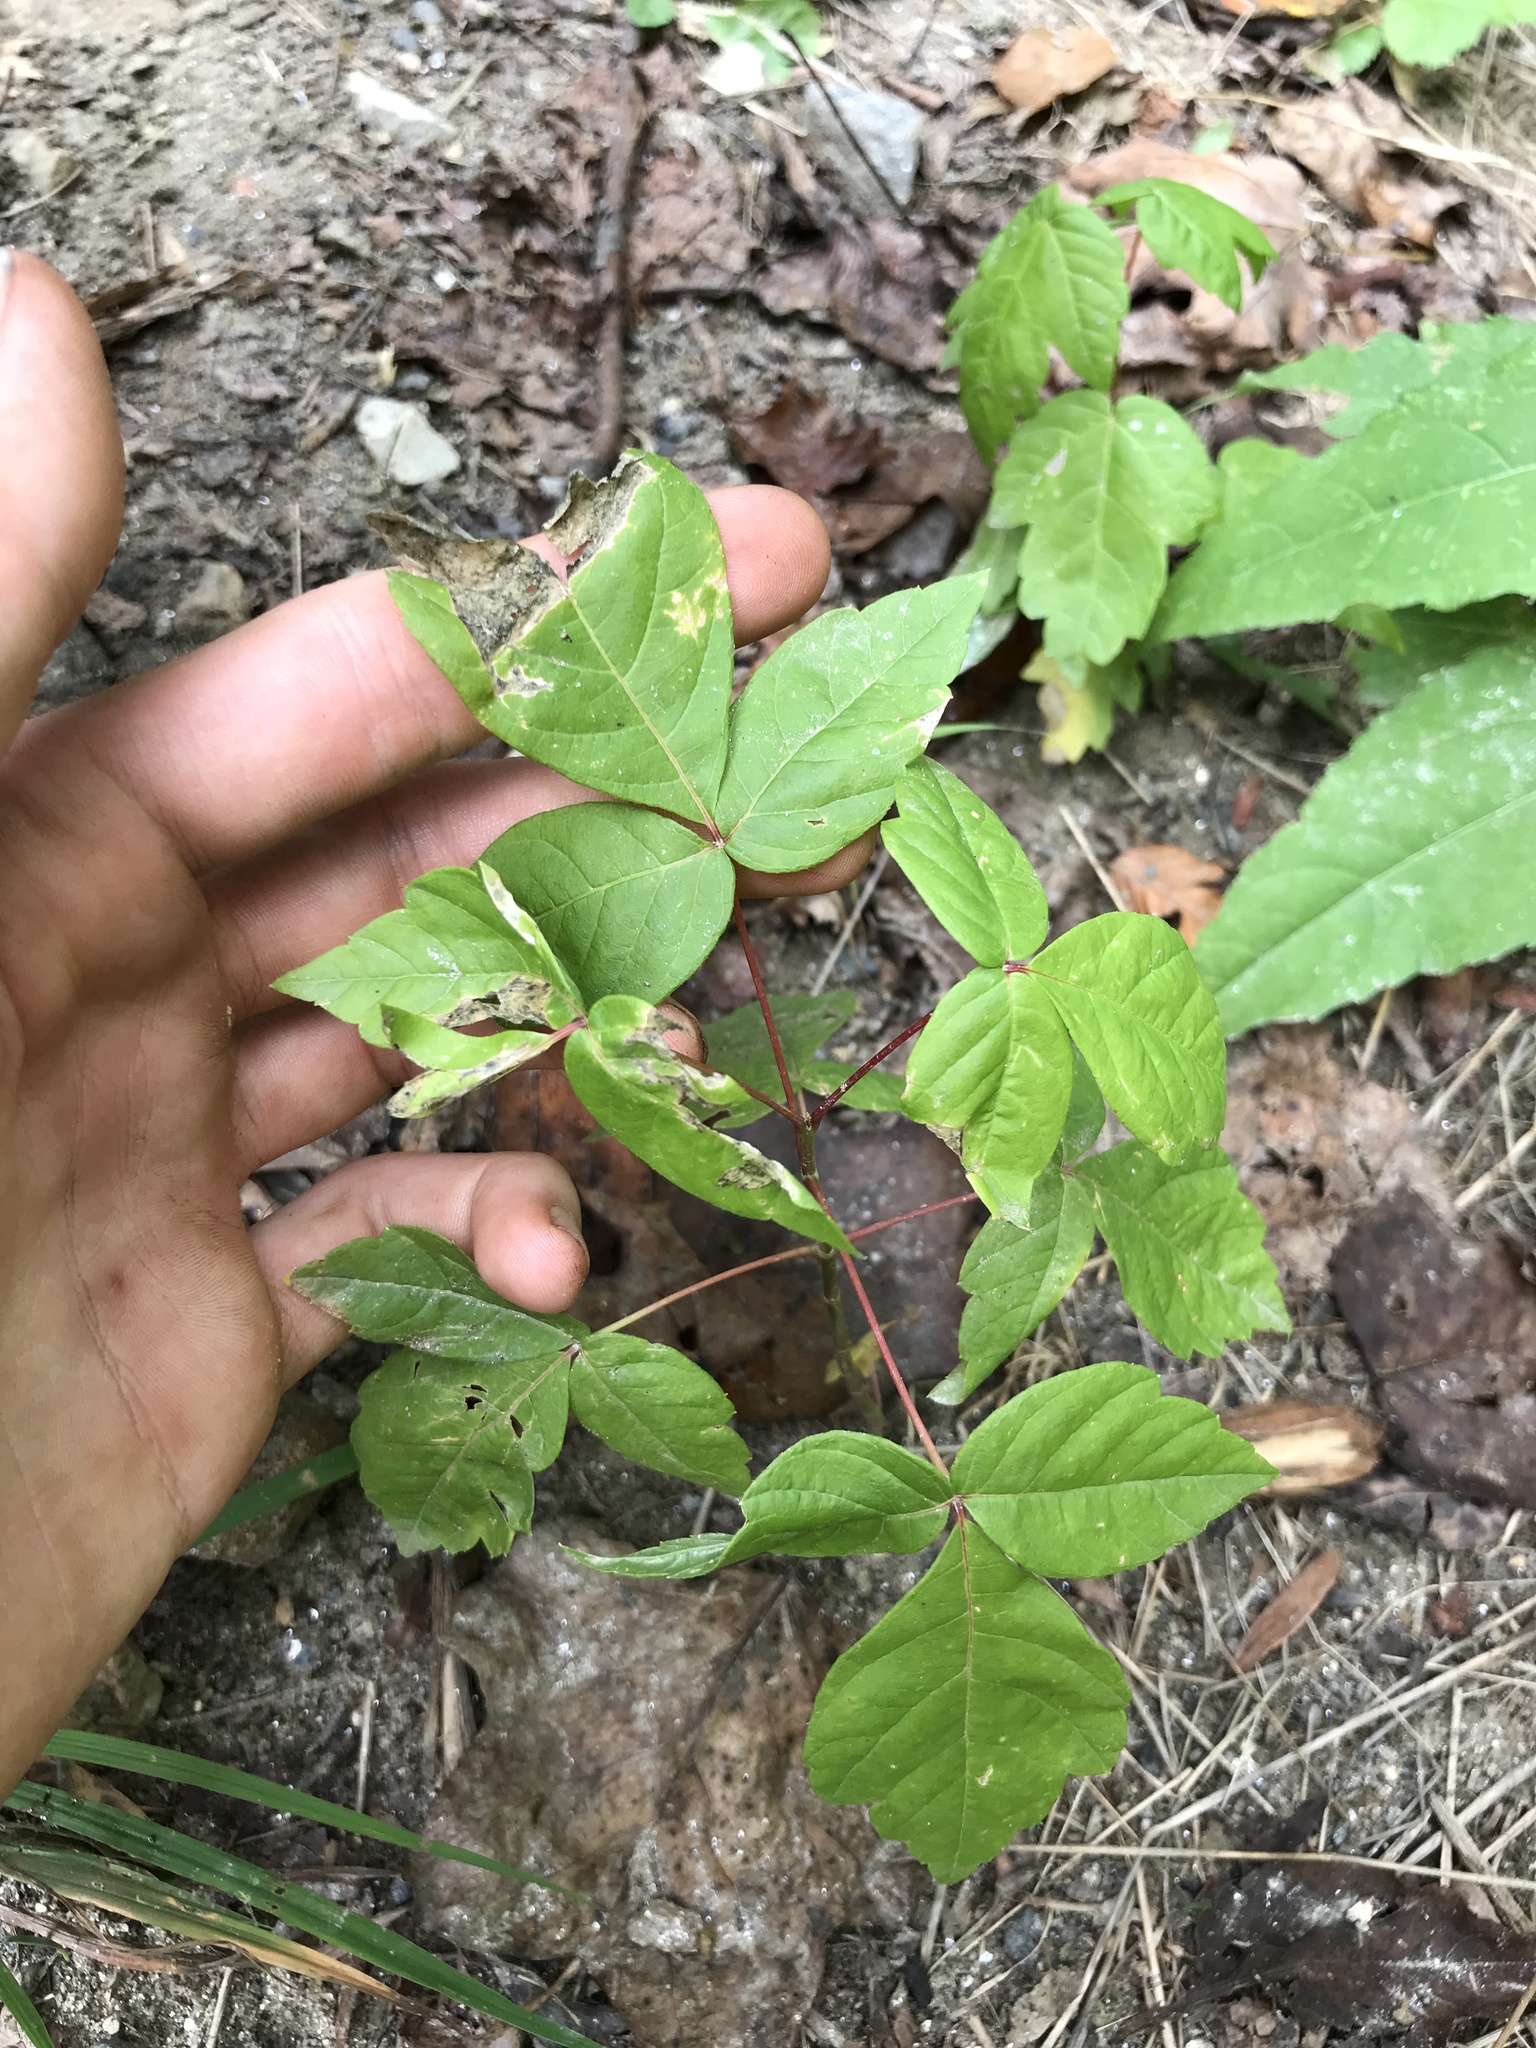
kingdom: Plantae
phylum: Tracheophyta
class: Magnoliopsida
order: Sapindales
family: Sapindaceae
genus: Acer
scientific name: Acer negundo
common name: Ashleaf maple
